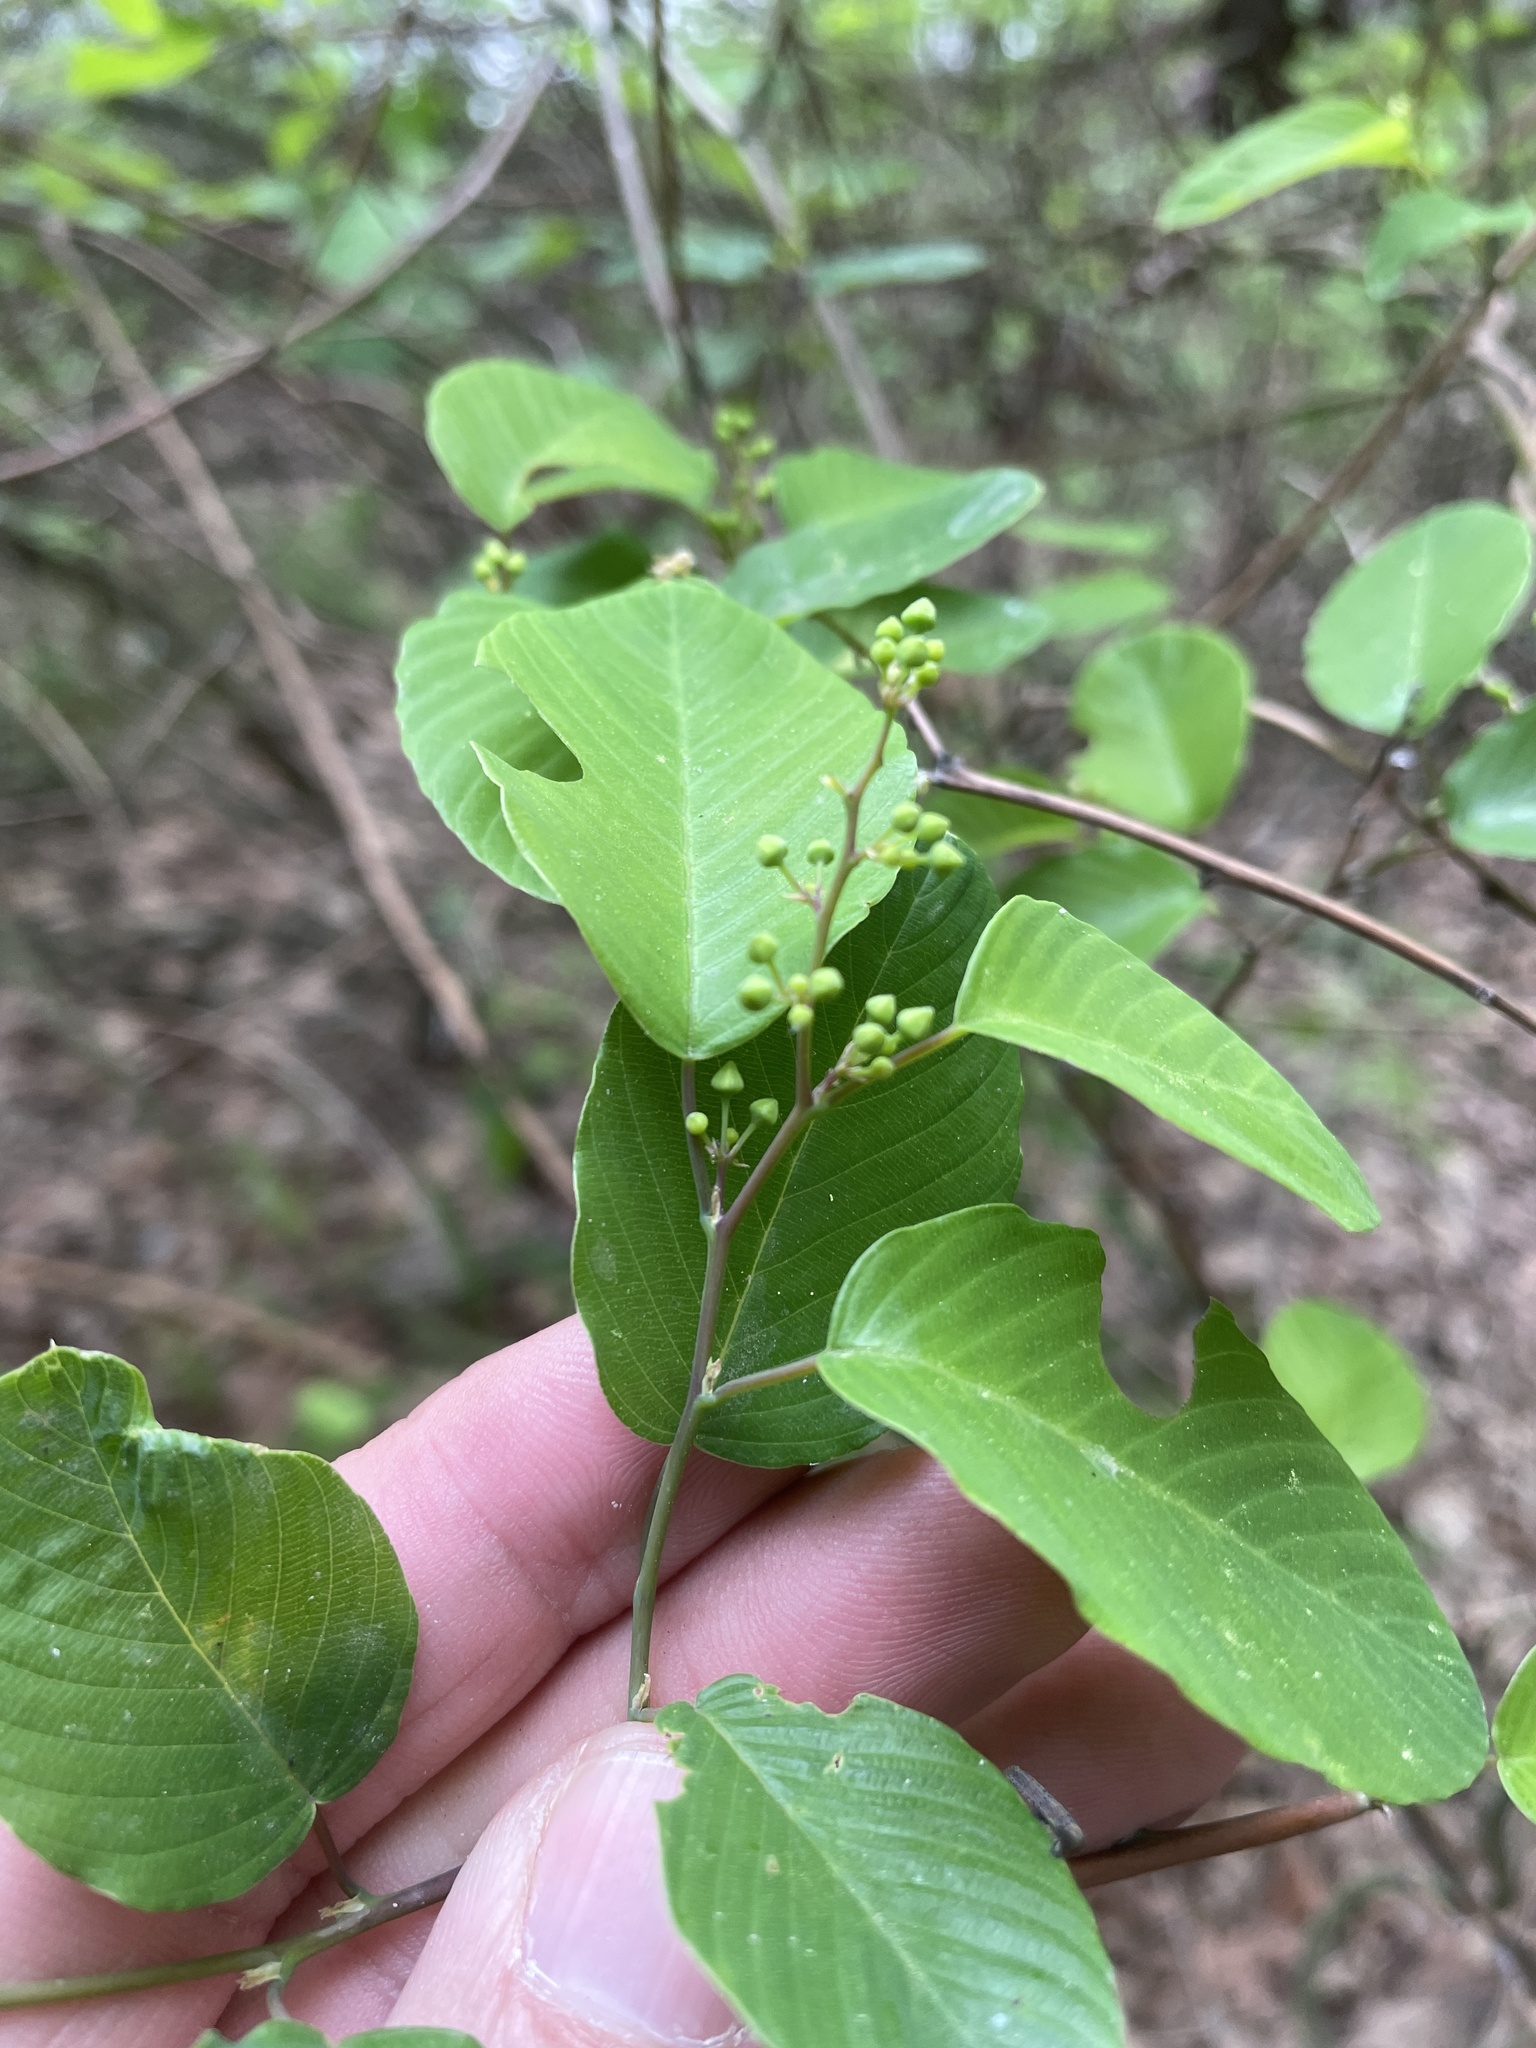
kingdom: Plantae
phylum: Tracheophyta
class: Magnoliopsida
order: Rosales
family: Rhamnaceae
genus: Berchemia
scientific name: Berchemia scandens
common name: Supplejack
